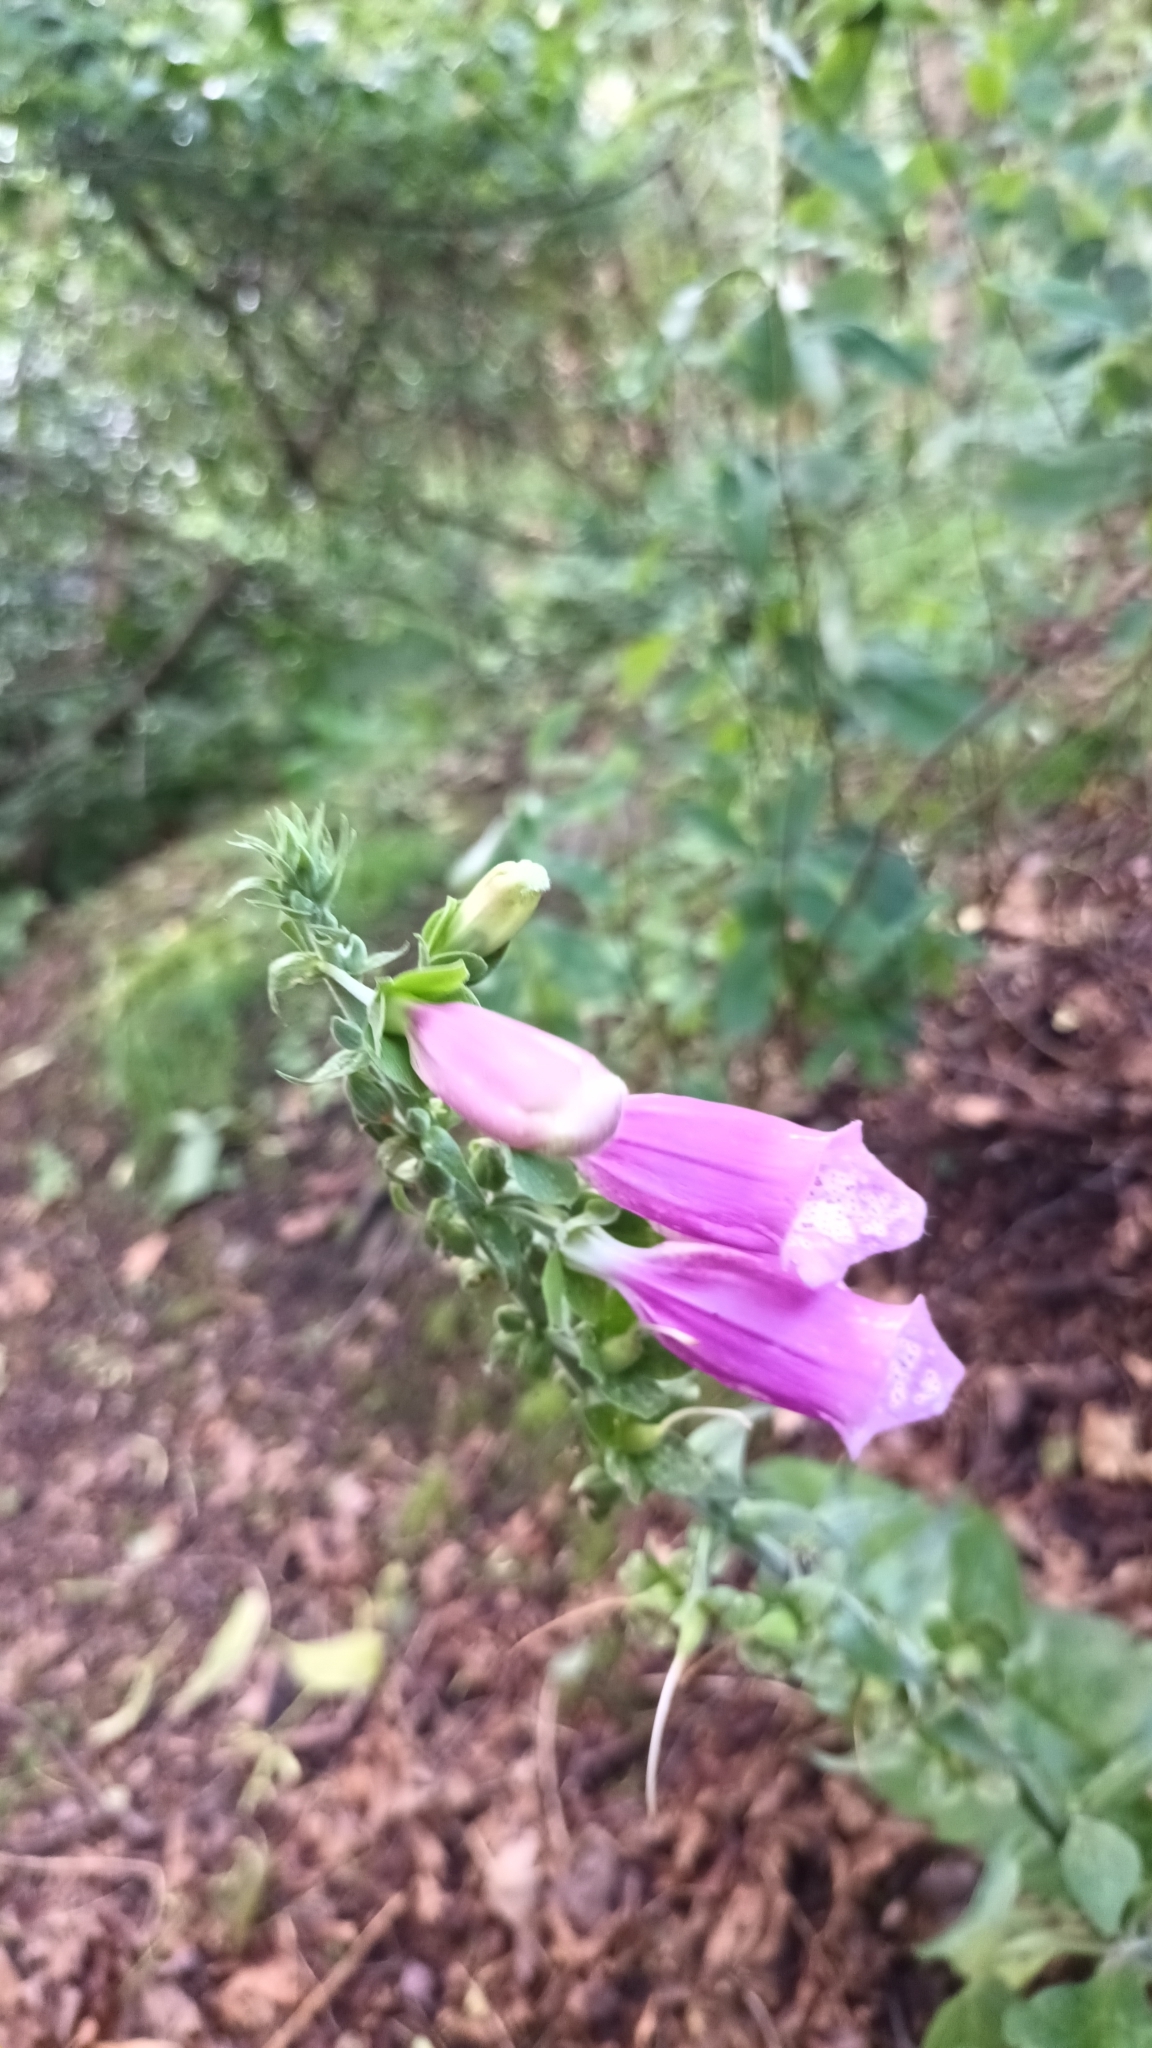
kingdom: Plantae
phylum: Tracheophyta
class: Magnoliopsida
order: Lamiales
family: Plantaginaceae
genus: Digitalis
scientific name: Digitalis purpurea
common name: Foxglove
